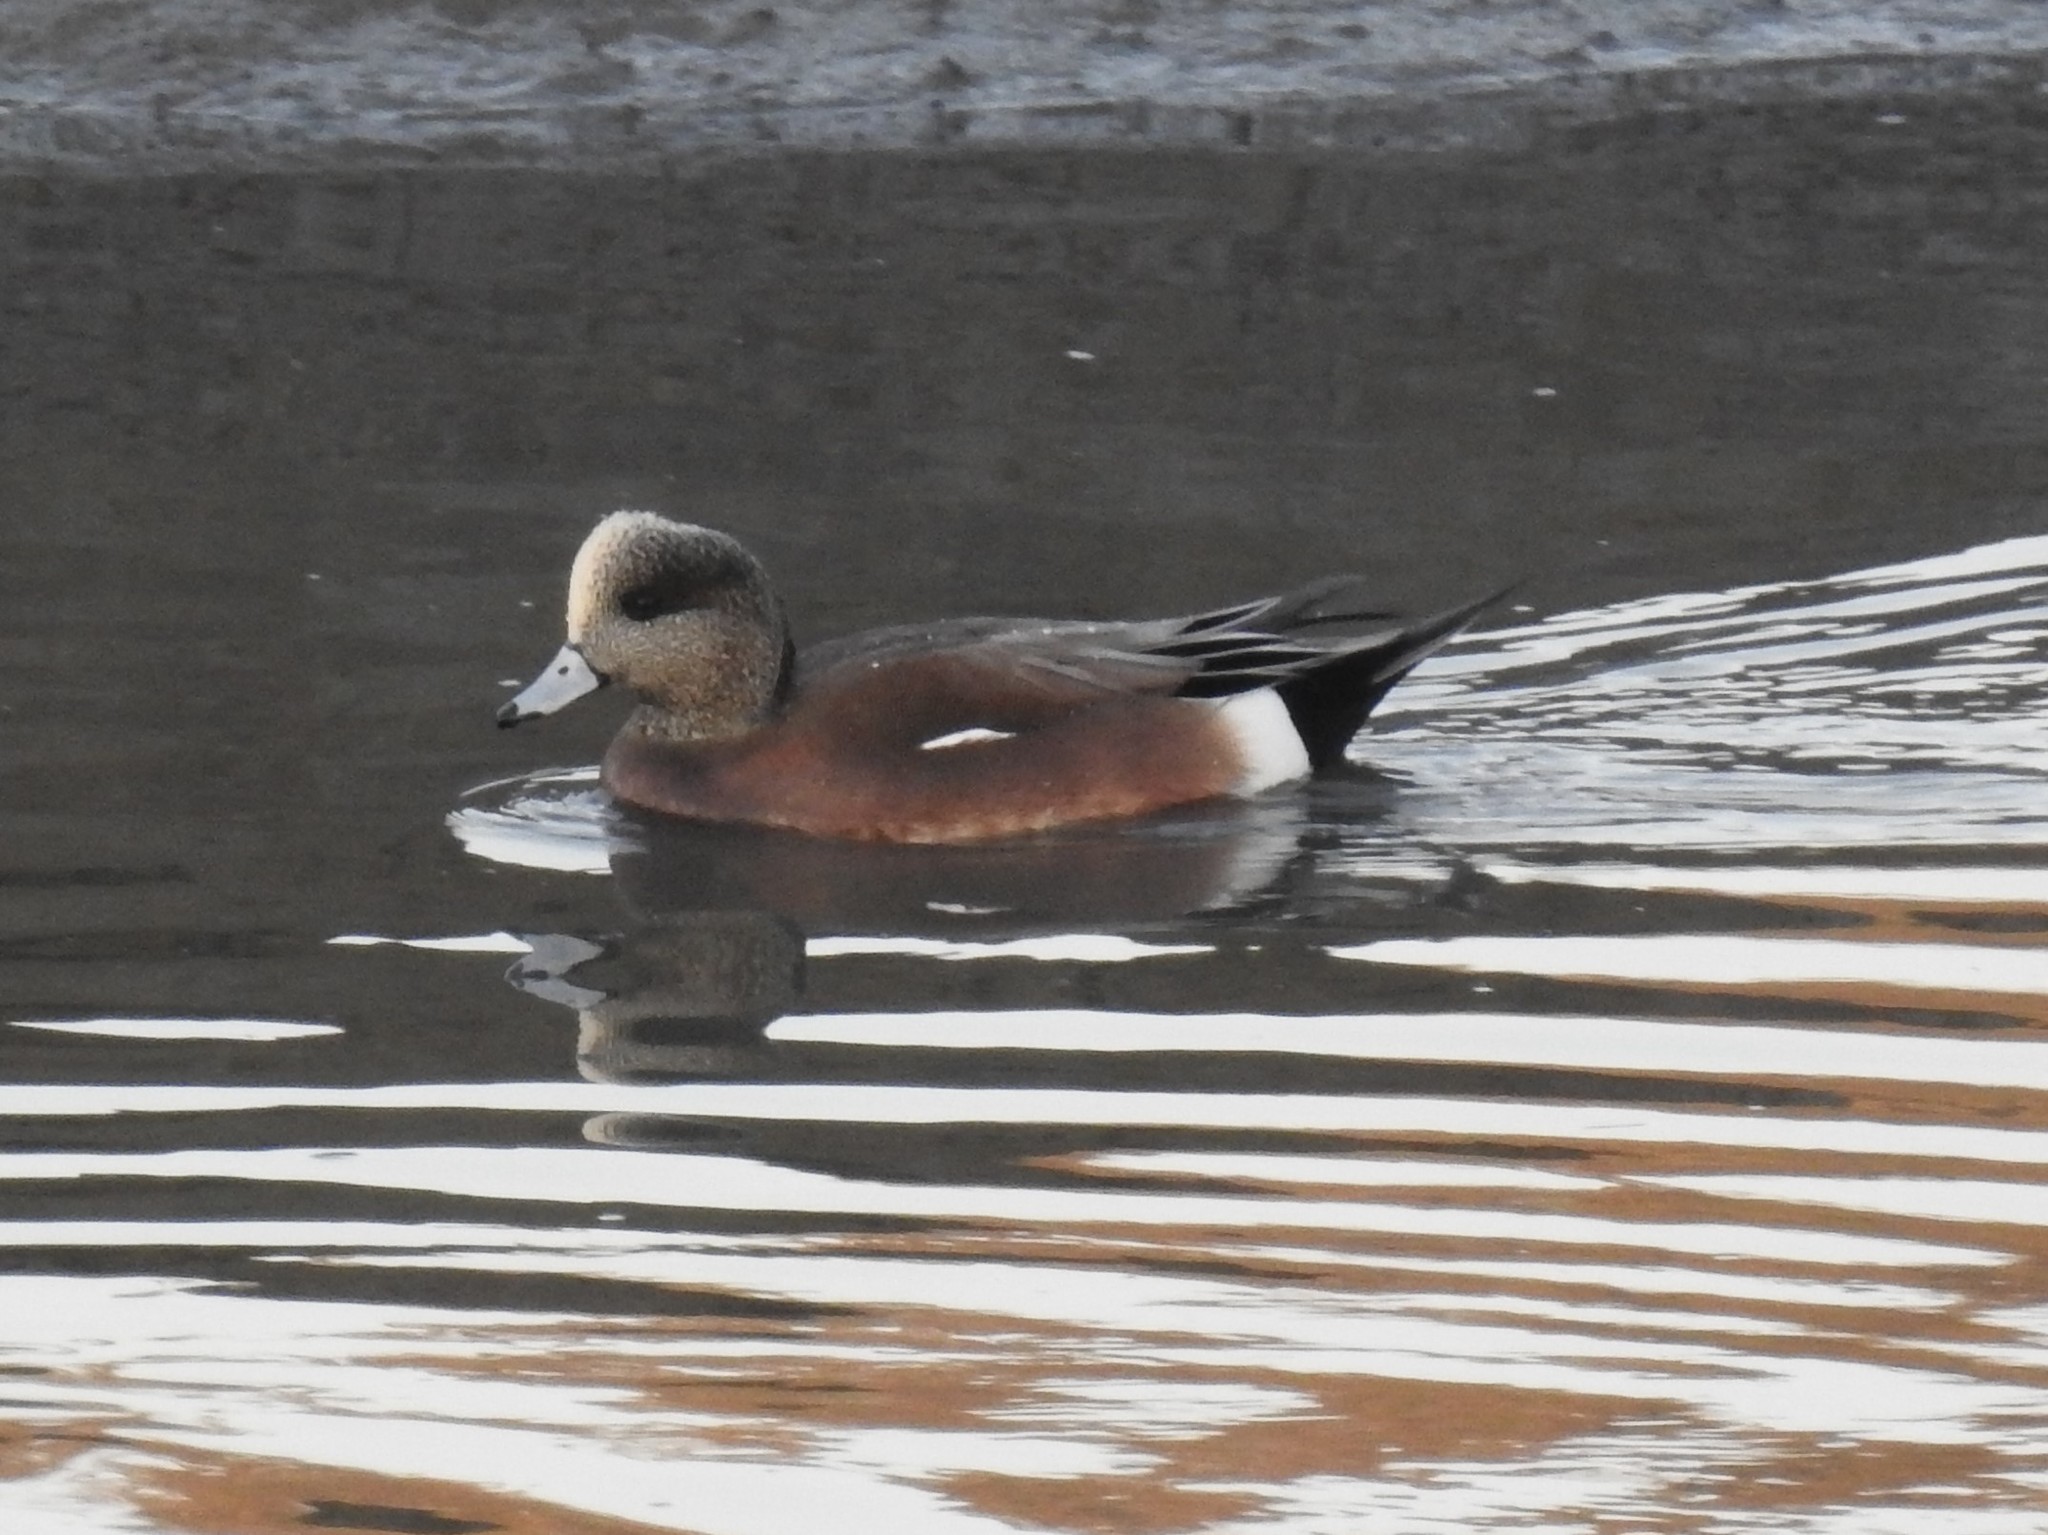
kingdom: Animalia
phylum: Chordata
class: Aves
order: Anseriformes
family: Anatidae
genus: Mareca
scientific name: Mareca americana
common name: American wigeon
